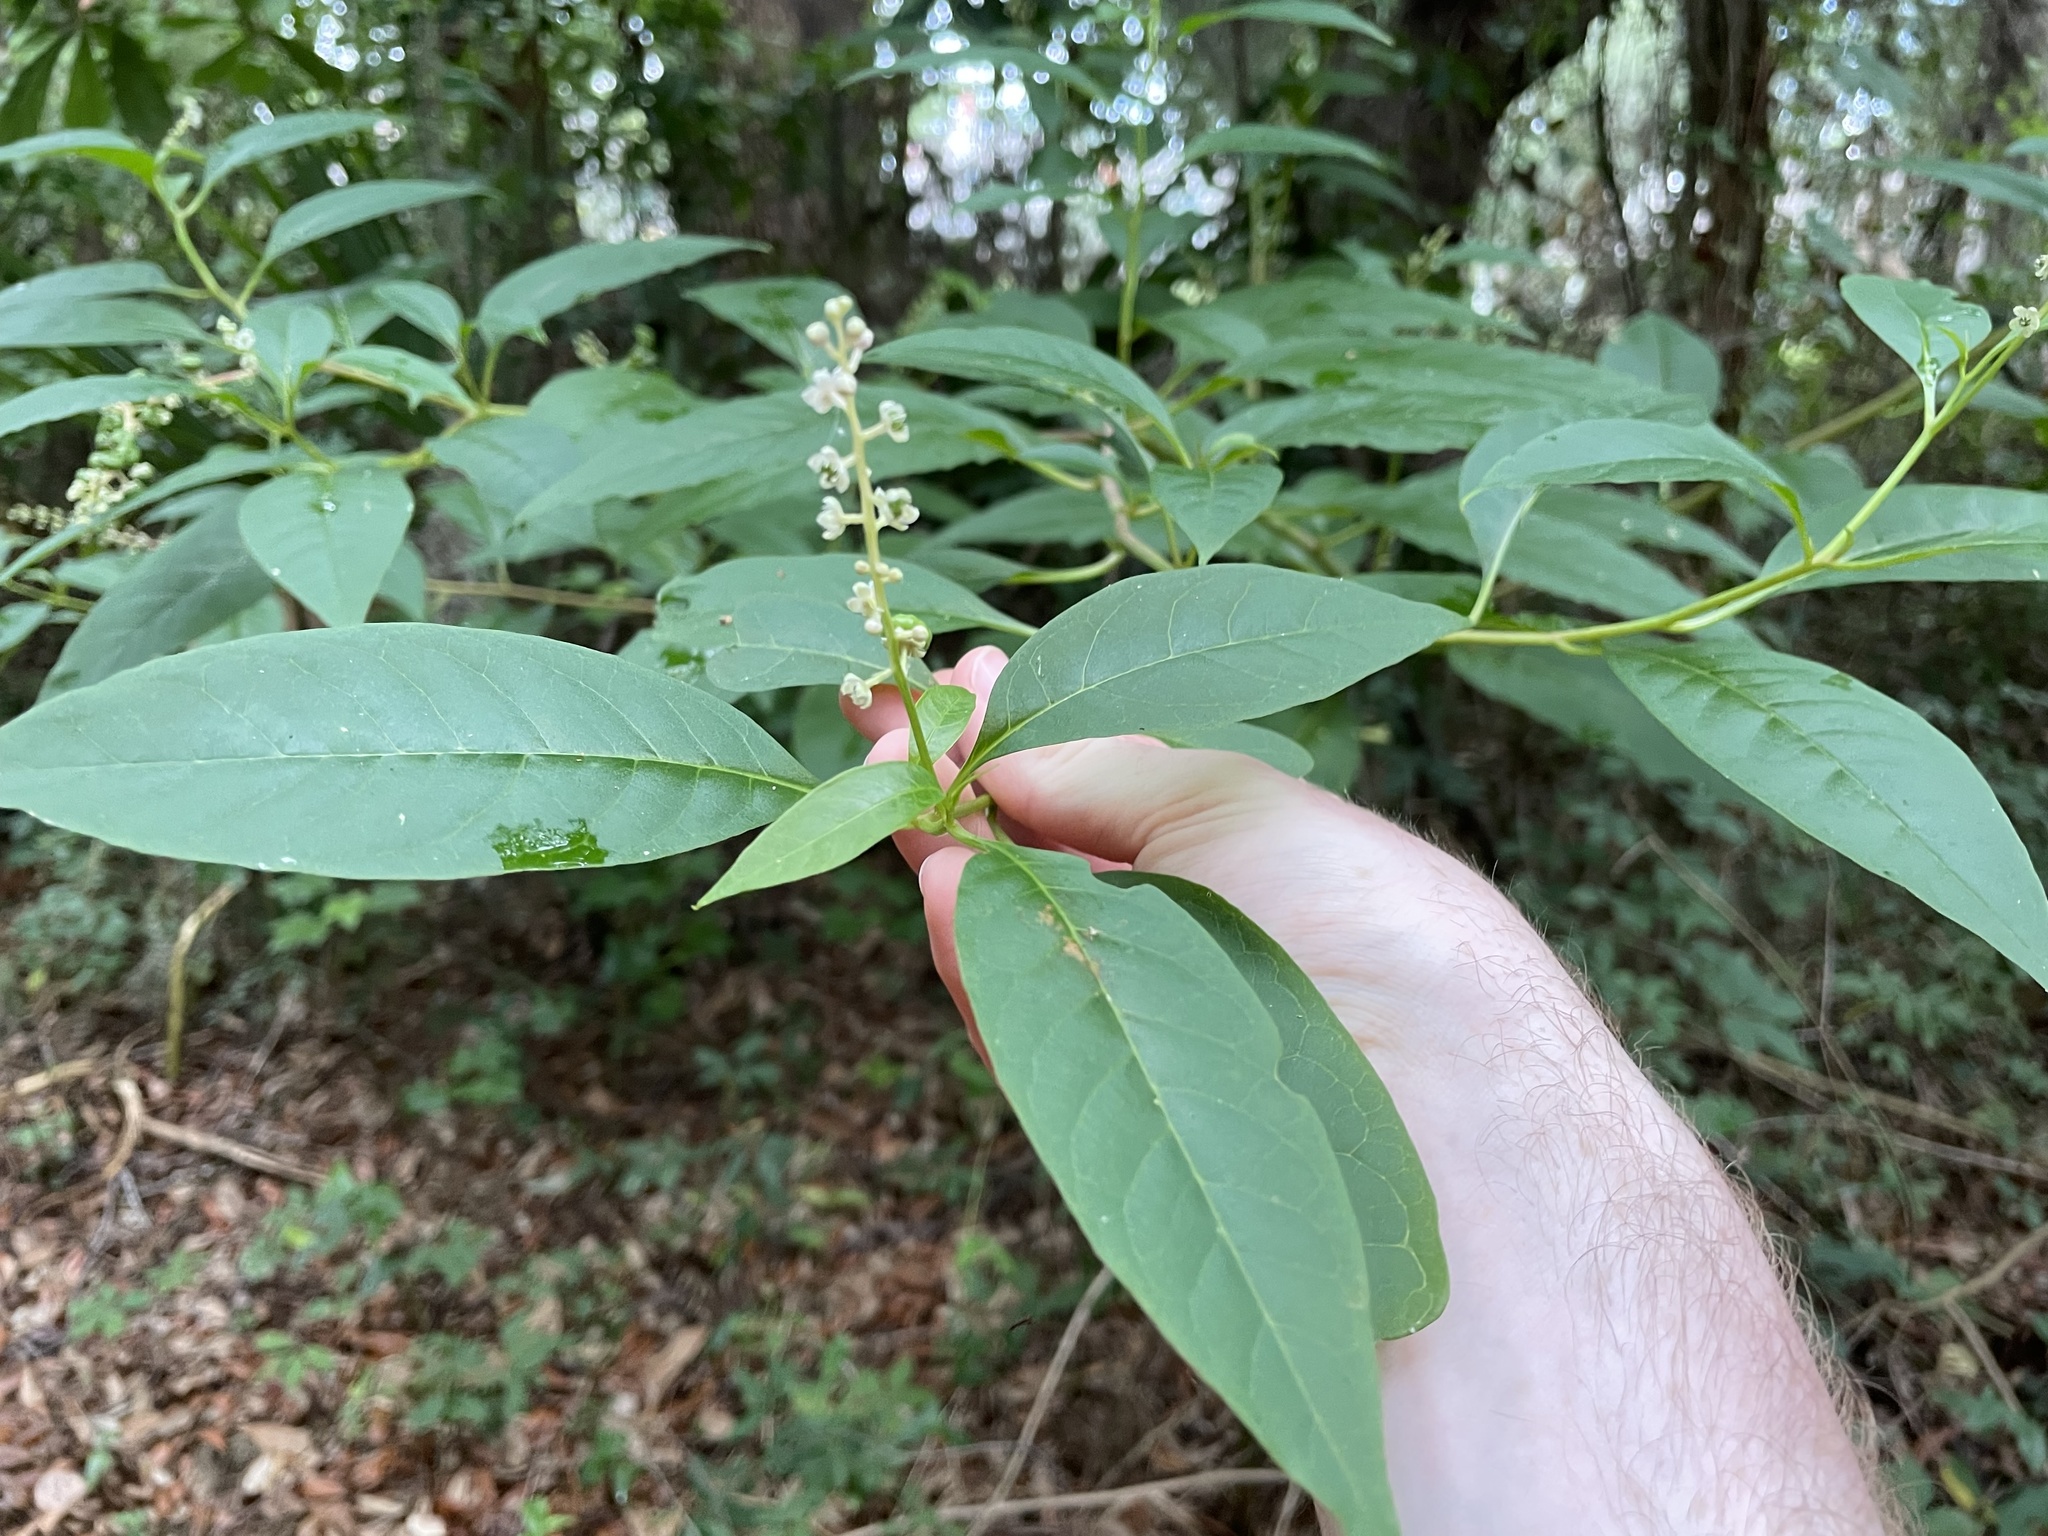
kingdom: Plantae
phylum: Tracheophyta
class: Magnoliopsida
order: Caryophyllales
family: Phytolaccaceae
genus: Phytolacca
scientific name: Phytolacca americana
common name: American pokeweed
